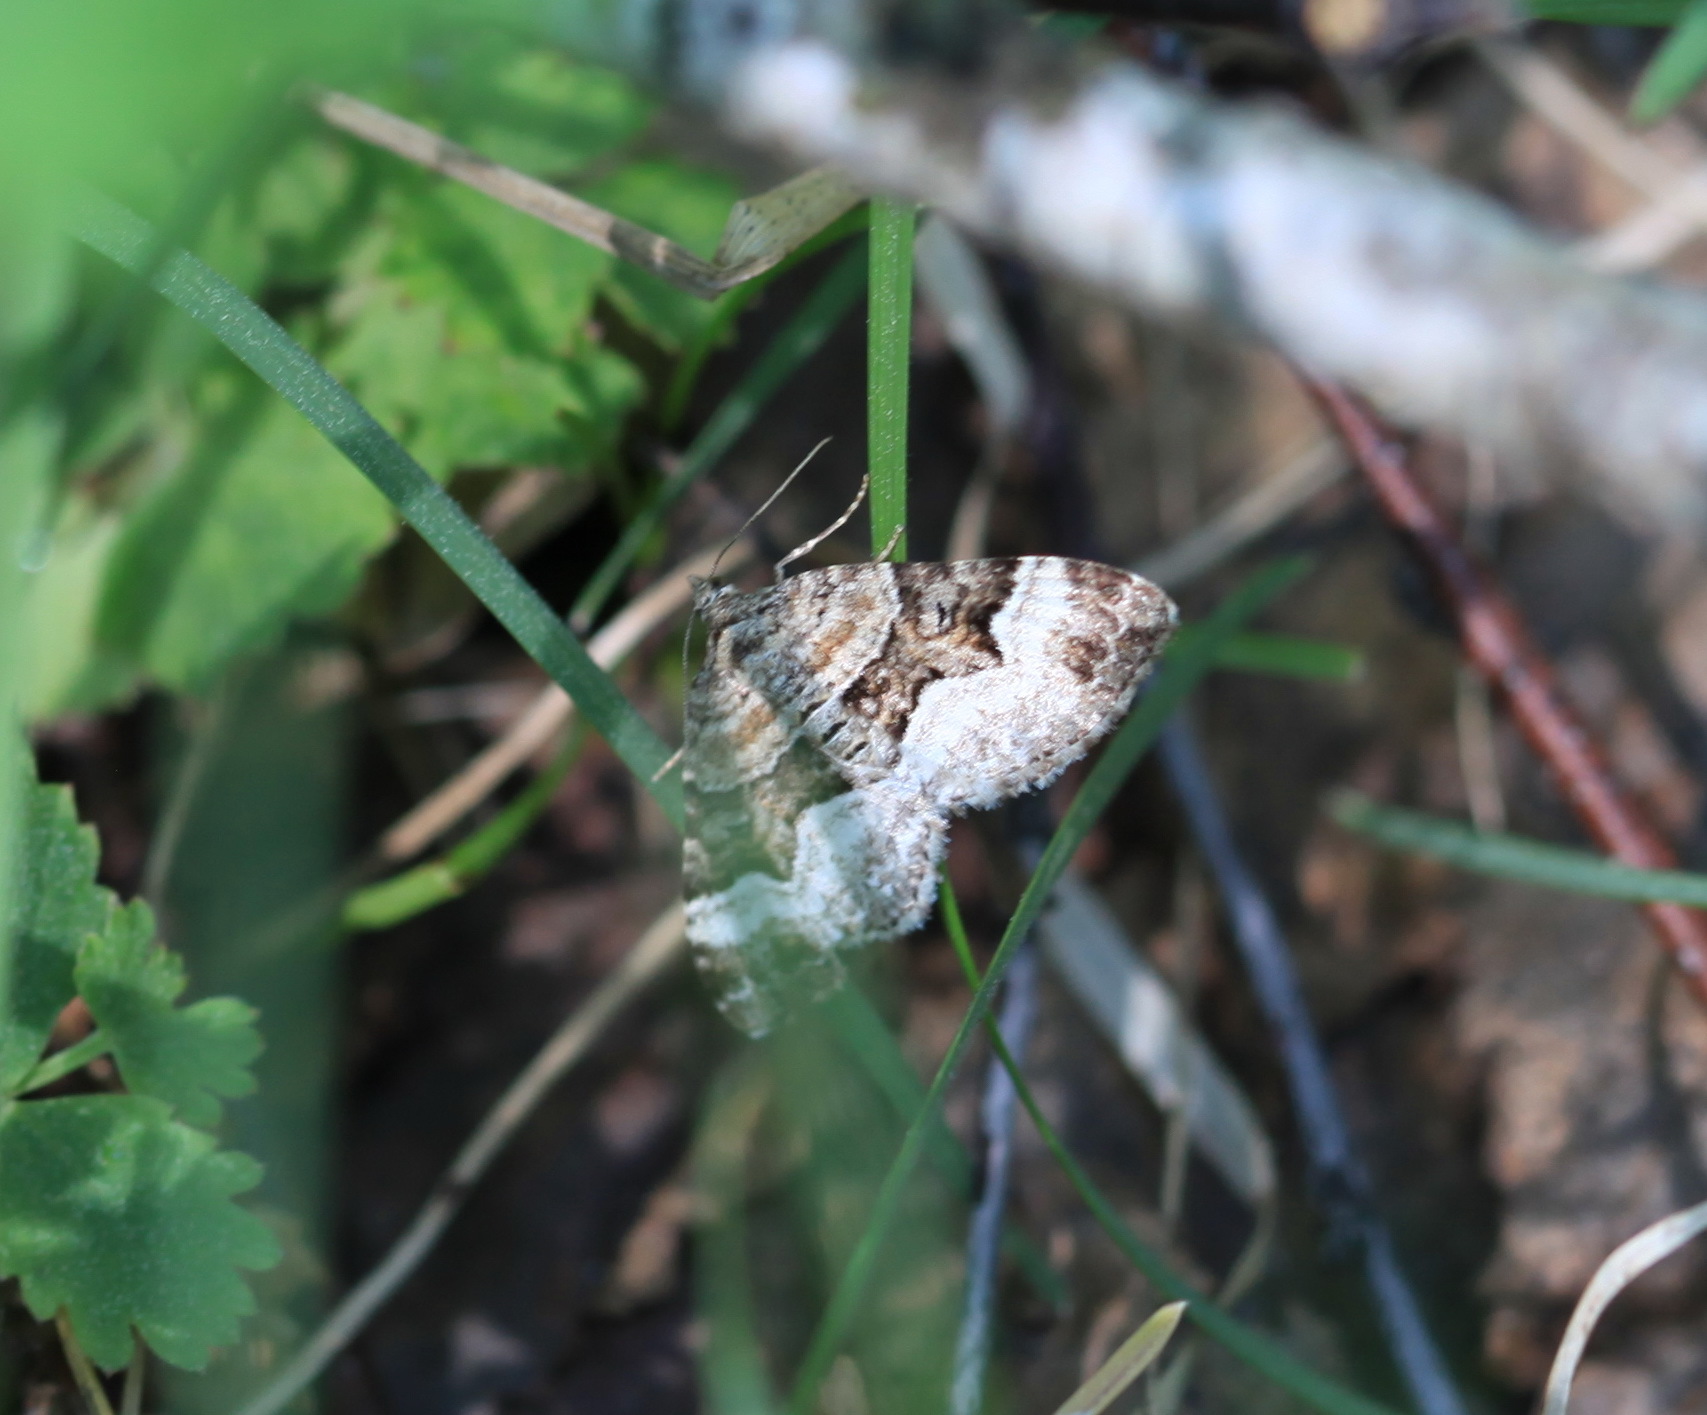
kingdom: Animalia
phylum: Arthropoda
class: Insecta
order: Lepidoptera
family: Geometridae
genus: Xanthorhoe
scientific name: Xanthorhoe biriviata
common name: Balsam carpet
